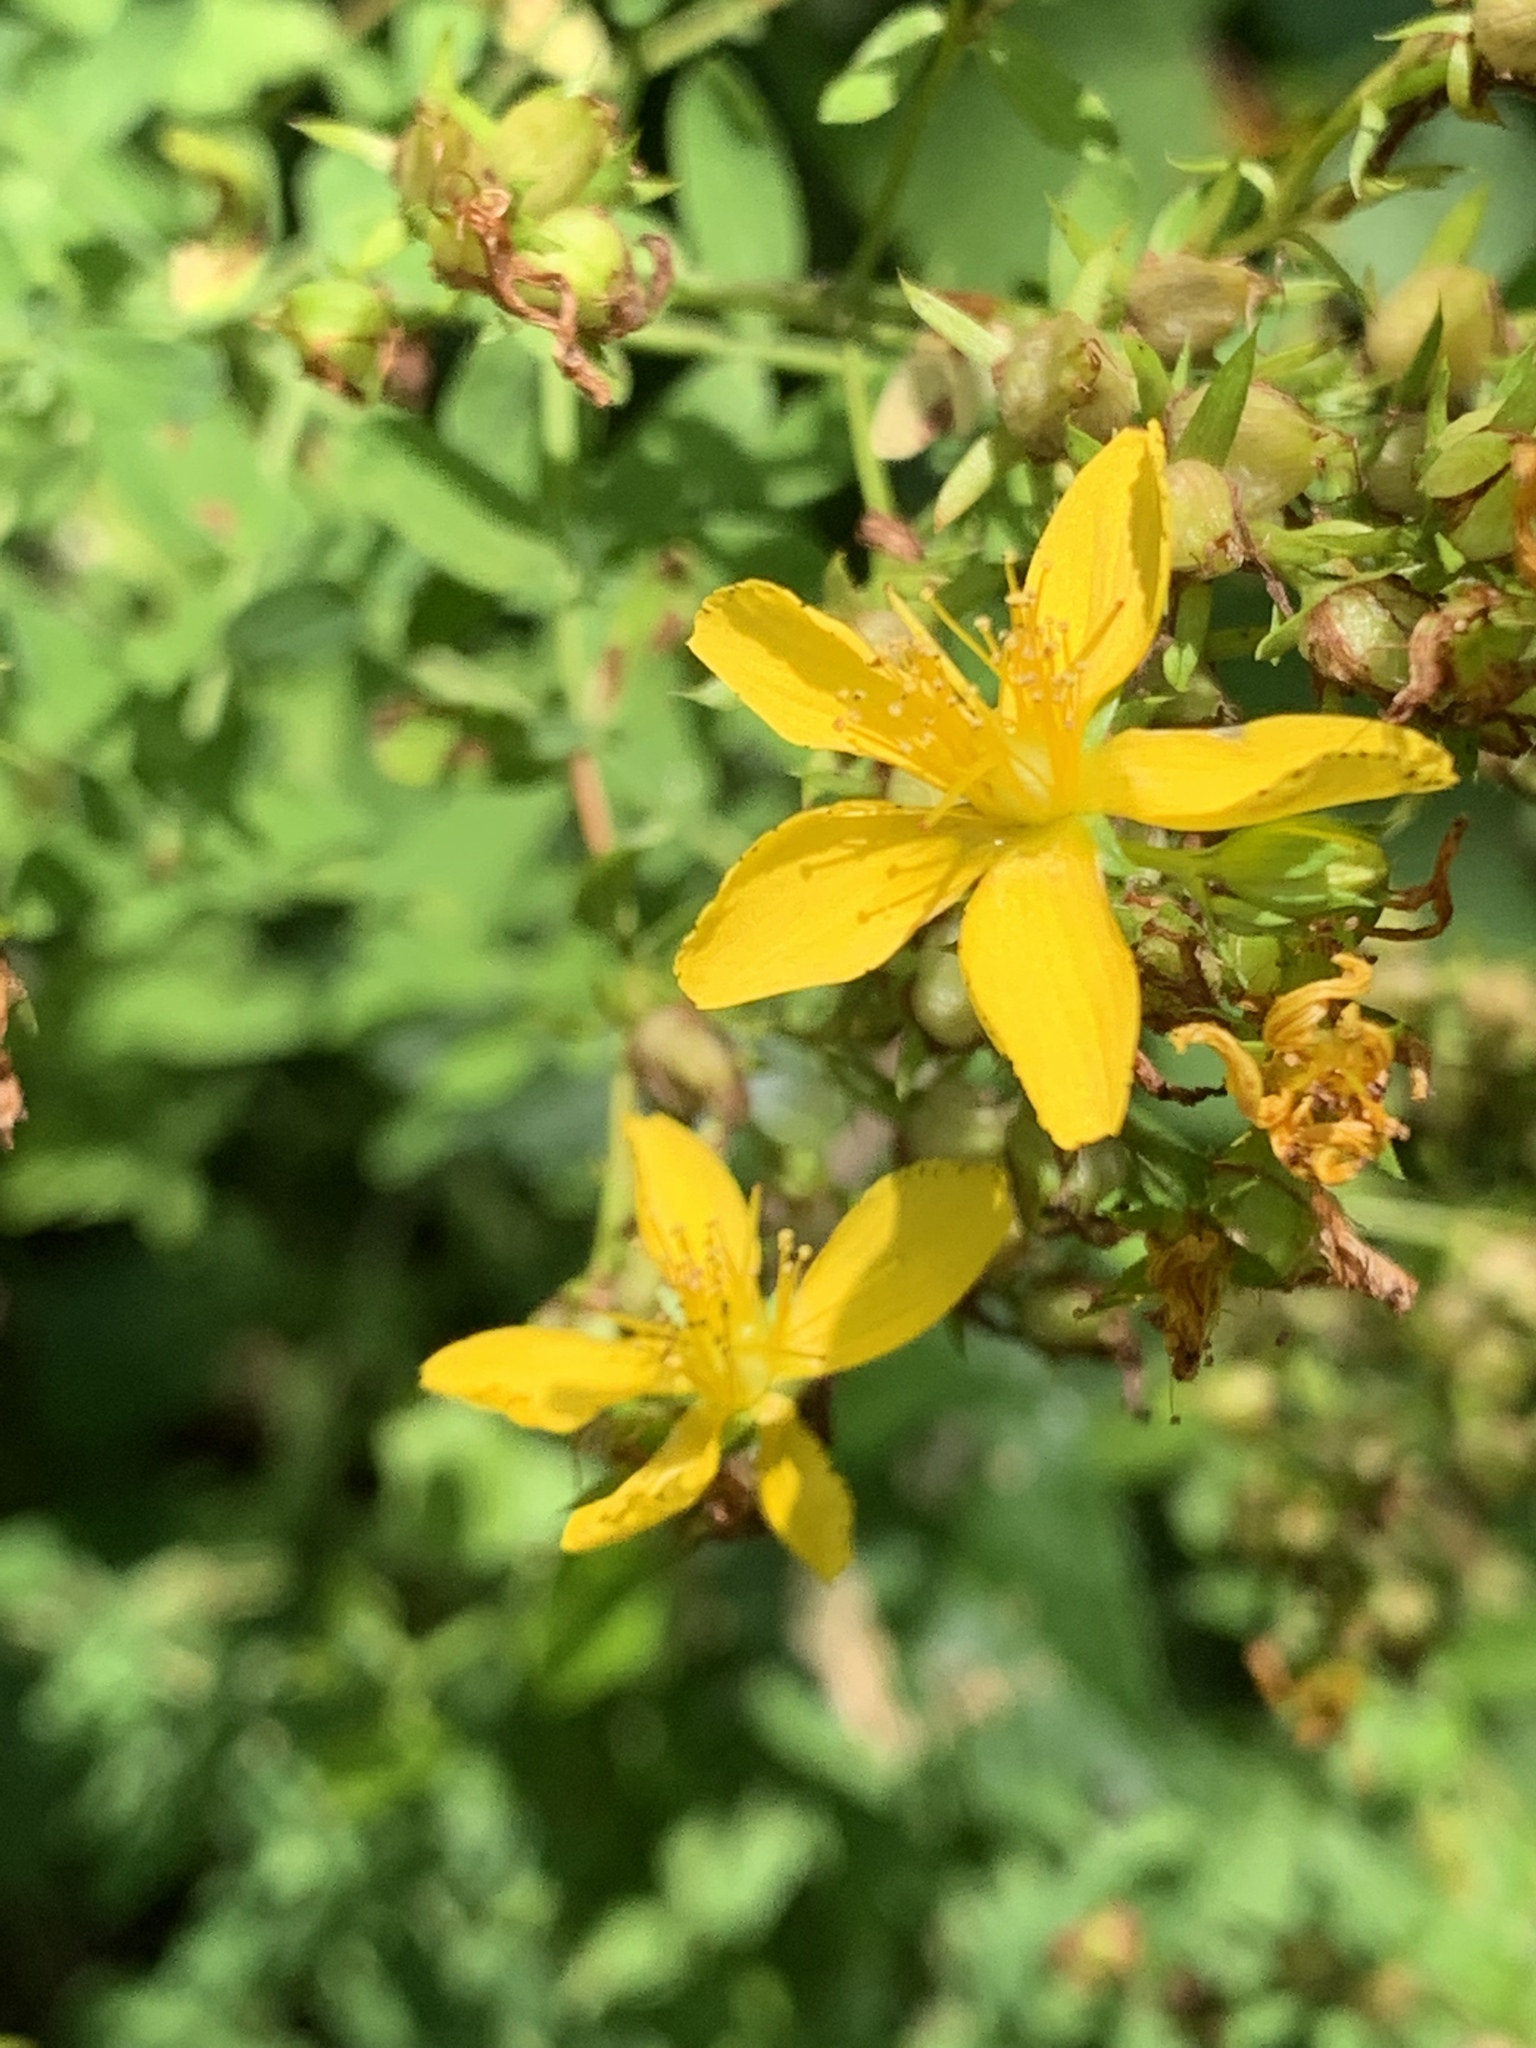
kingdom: Plantae
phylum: Tracheophyta
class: Magnoliopsida
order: Malpighiales
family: Hypericaceae
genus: Hypericum
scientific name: Hypericum perforatum
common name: Common st. johnswort
